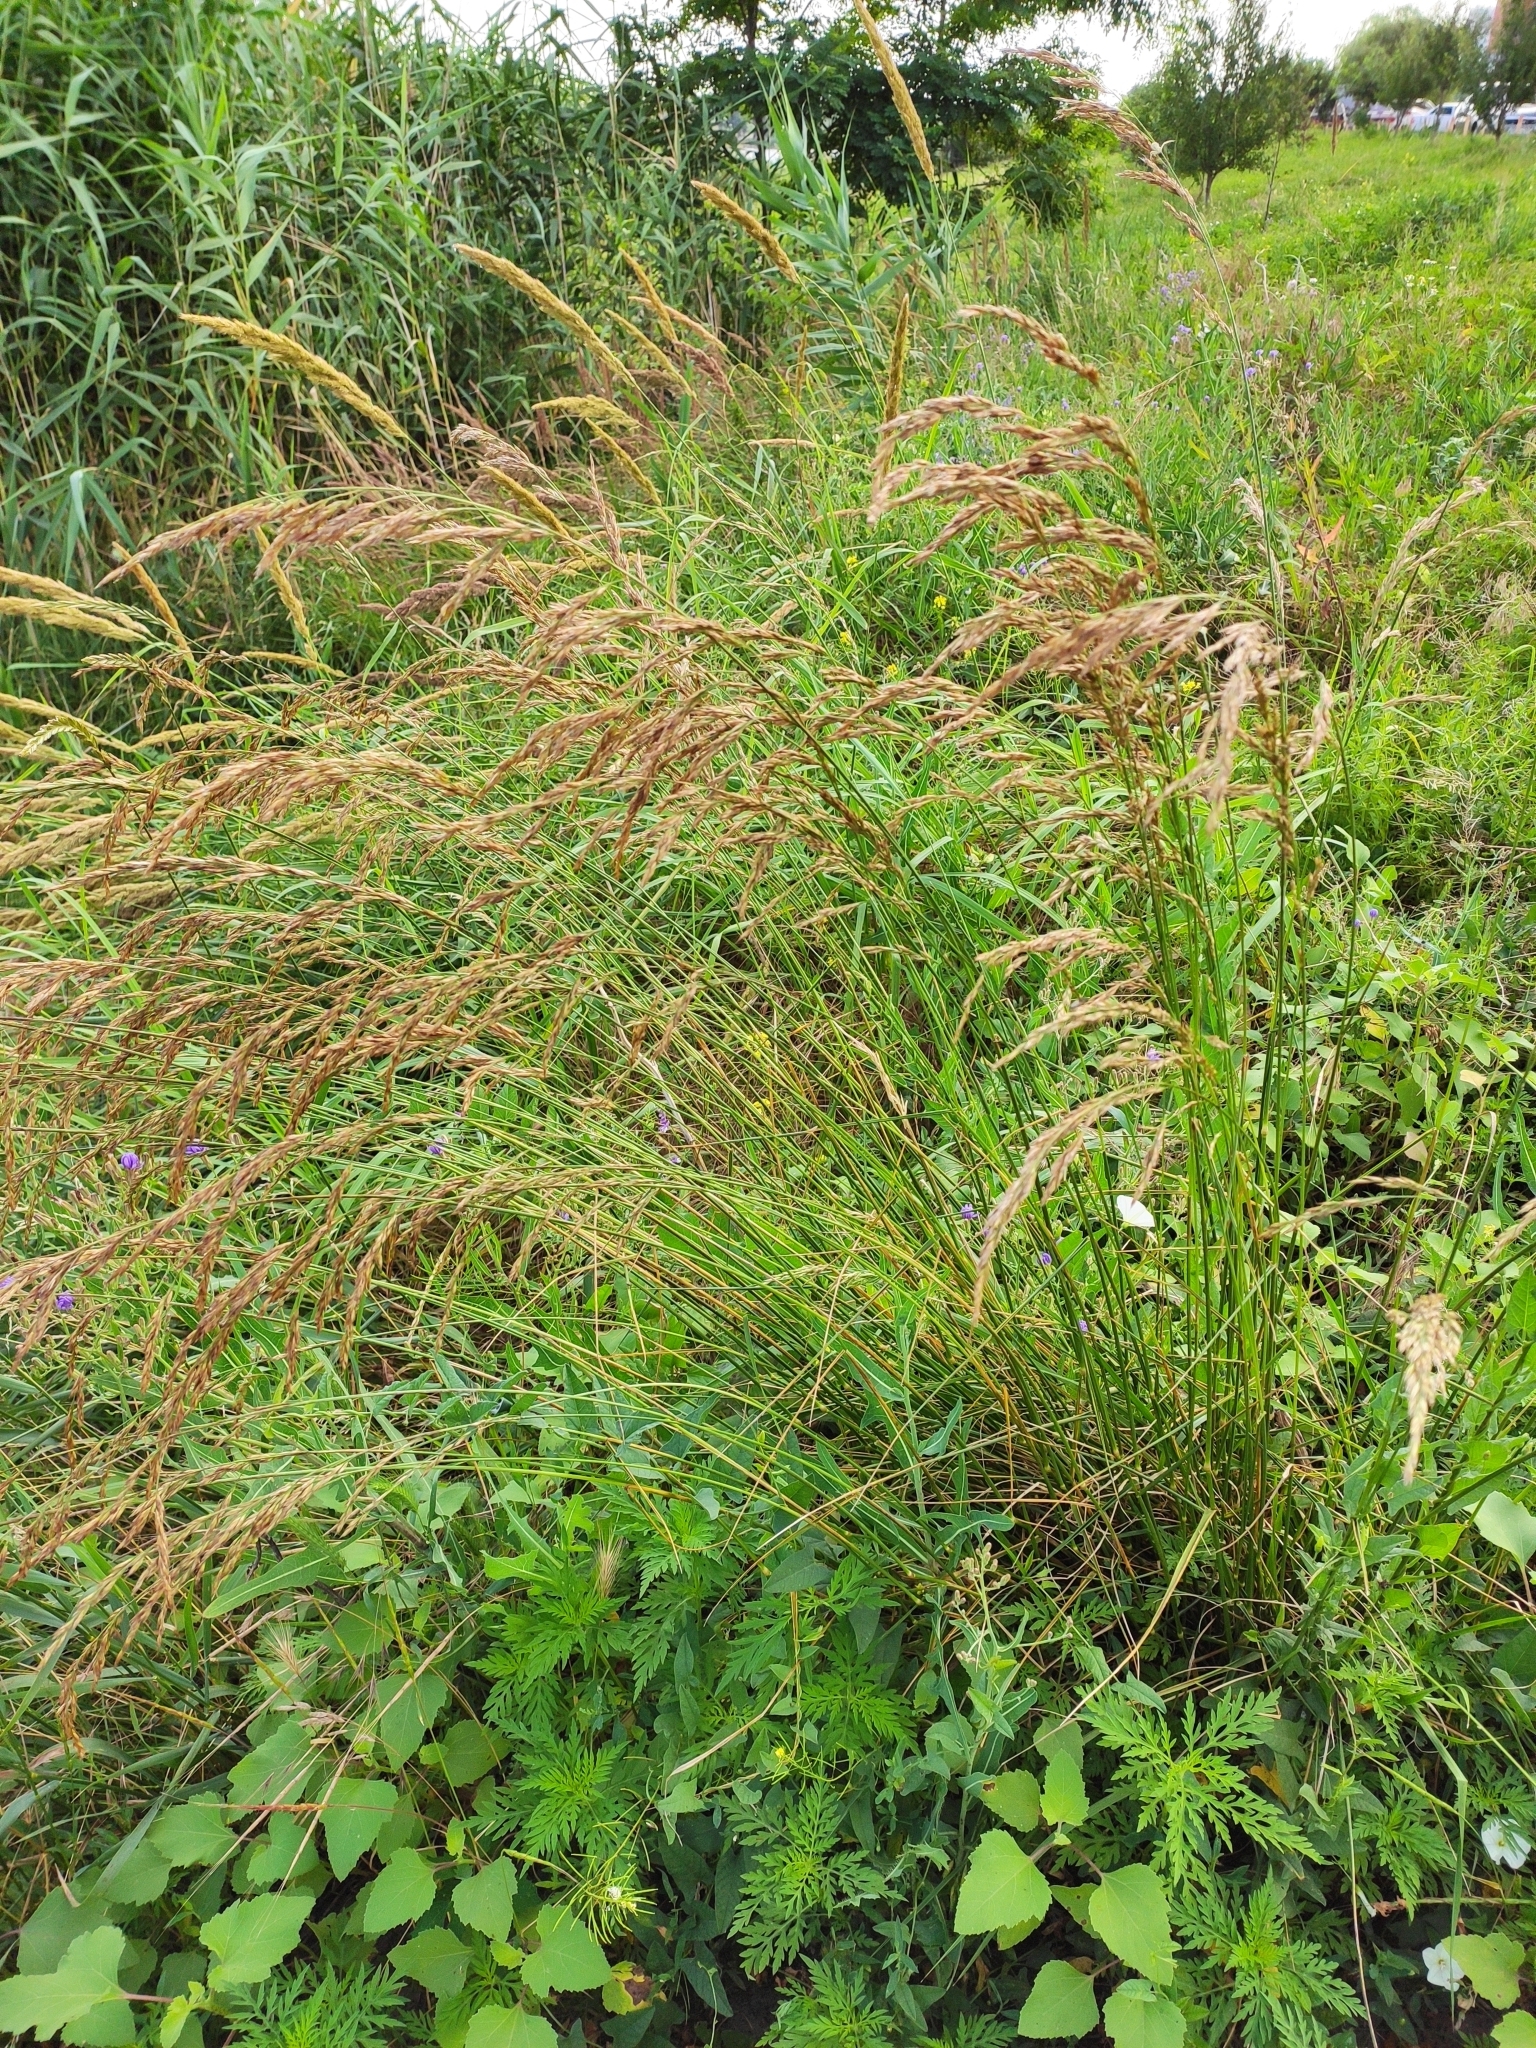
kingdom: Plantae
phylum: Tracheophyta
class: Liliopsida
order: Poales
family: Poaceae
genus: Lolium
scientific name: Lolium arundinaceum
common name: Reed fescue
